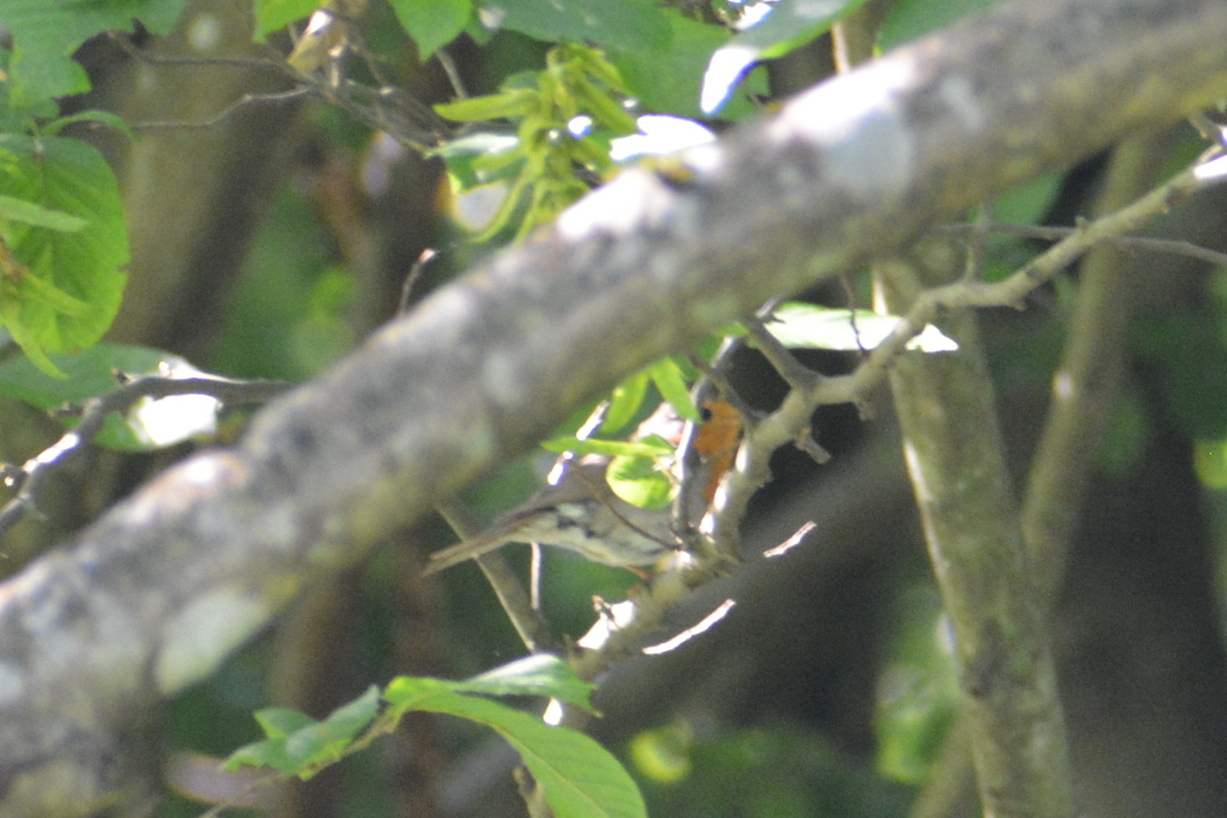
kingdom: Animalia
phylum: Chordata
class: Aves
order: Passeriformes
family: Muscicapidae
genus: Erithacus
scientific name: Erithacus rubecula
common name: European robin
